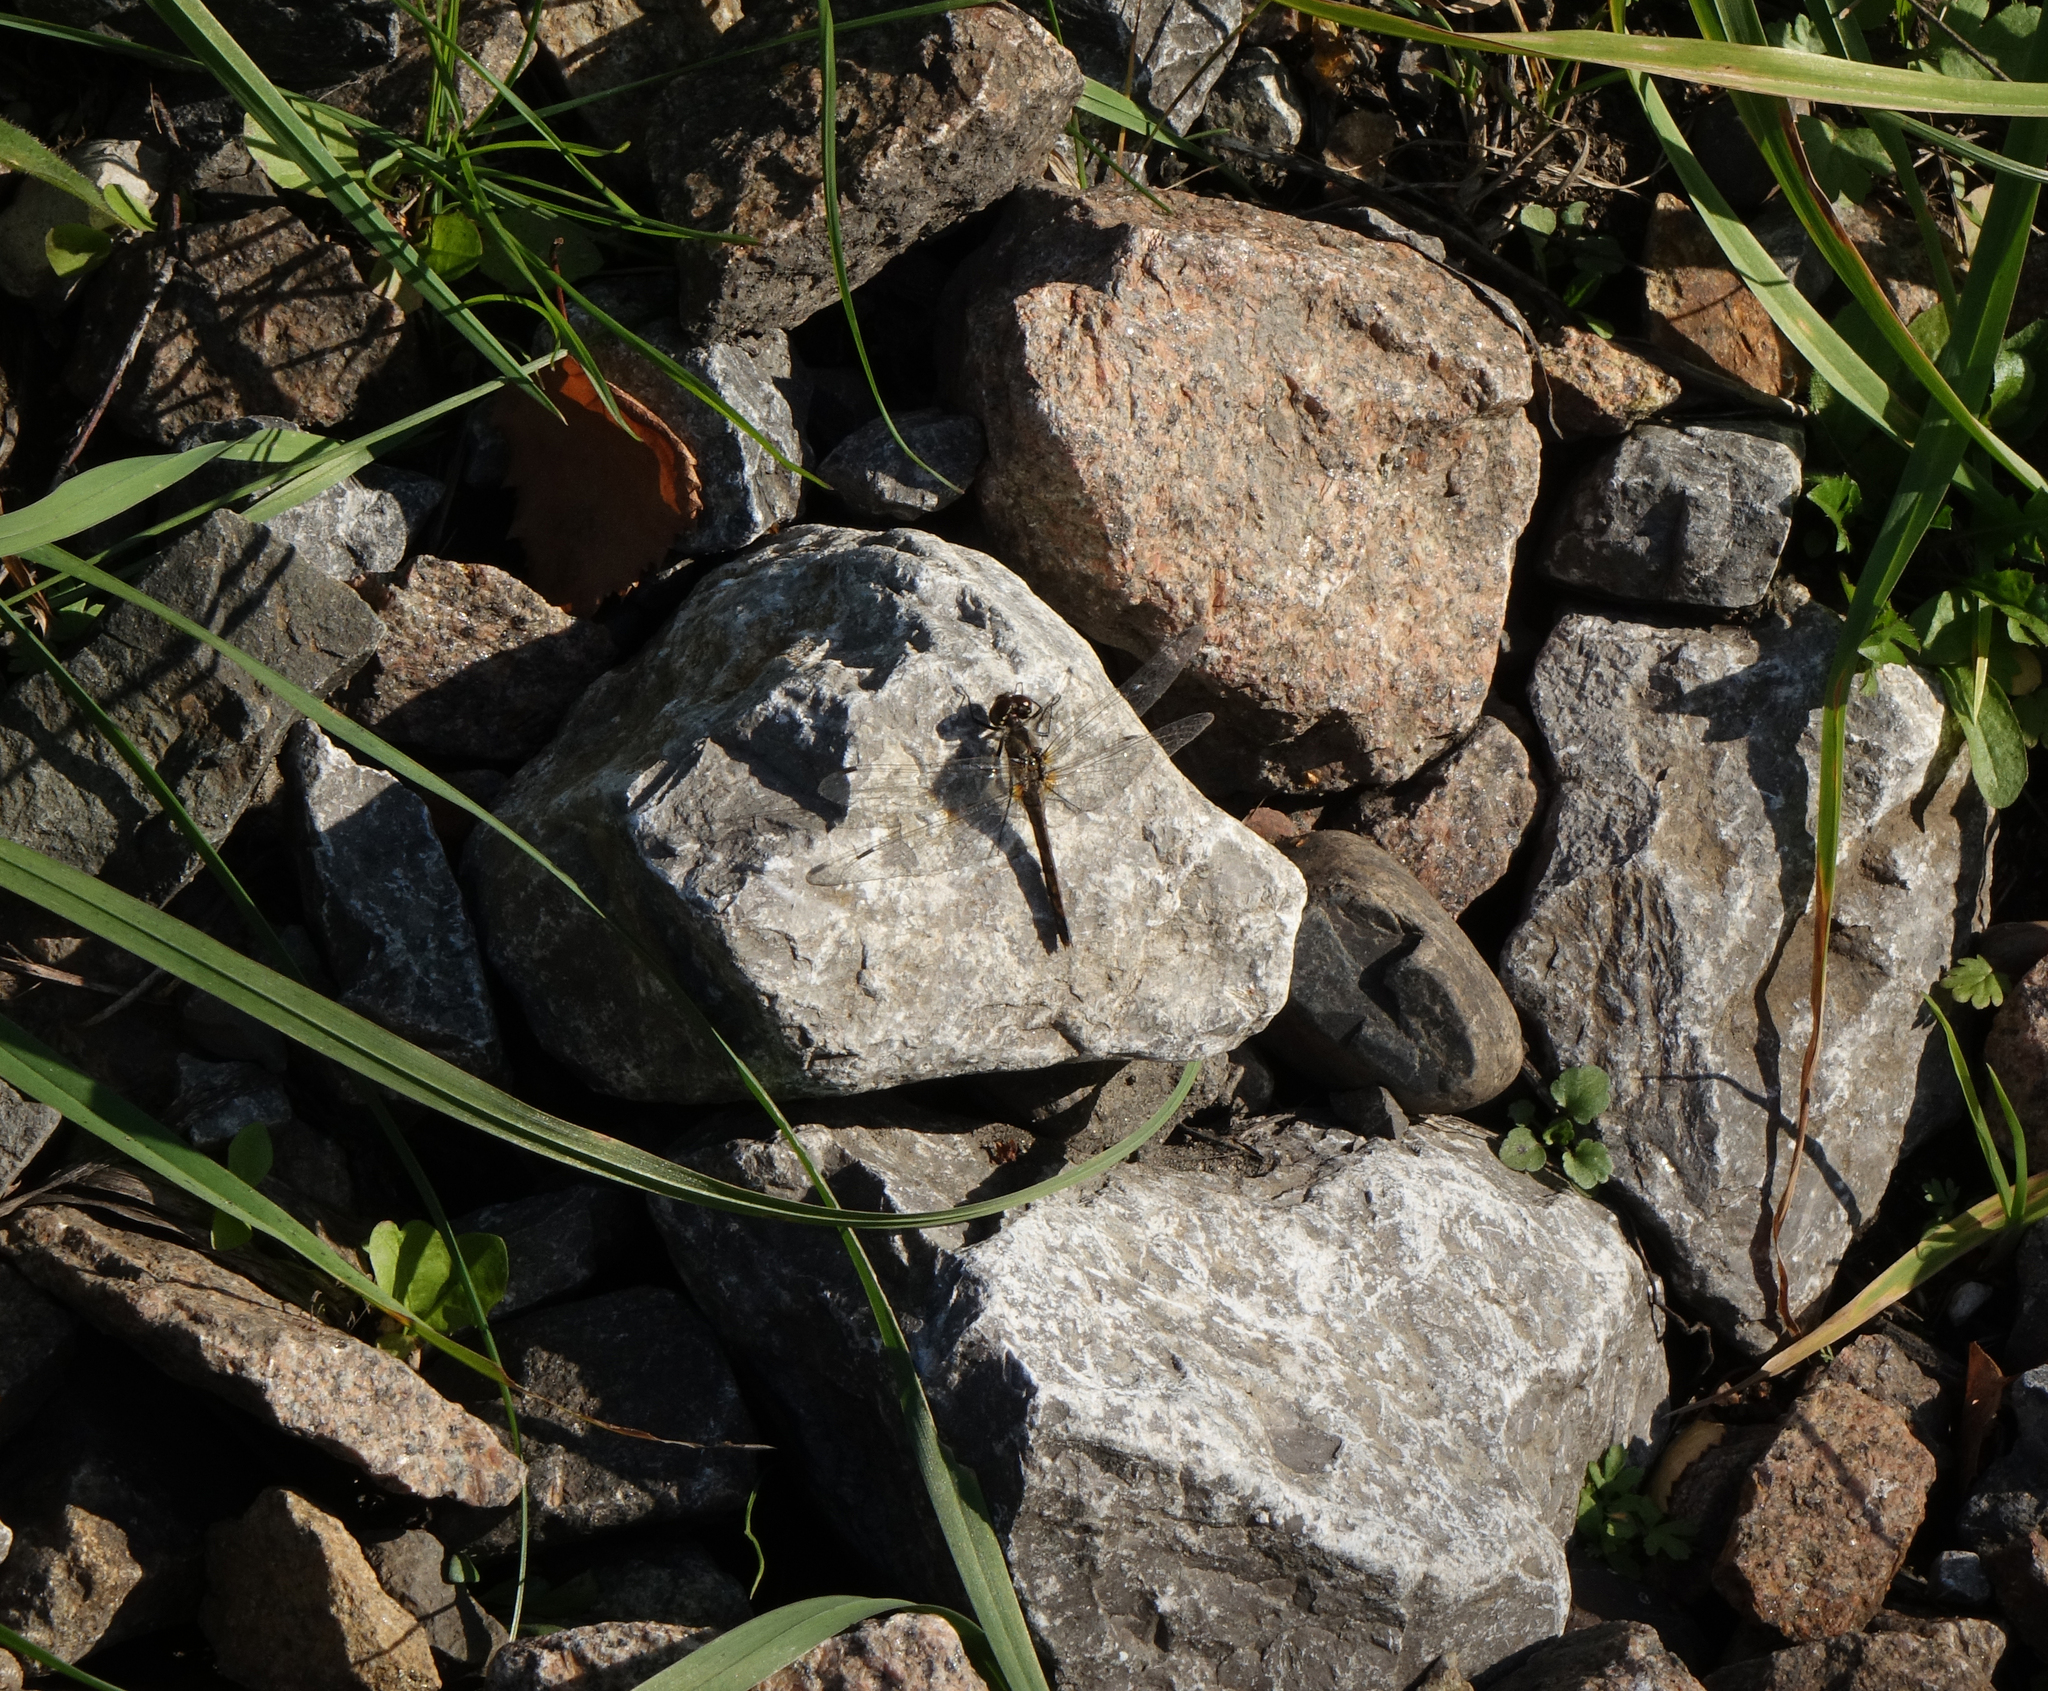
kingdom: Animalia
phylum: Arthropoda
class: Insecta
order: Odonata
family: Libellulidae
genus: Sympetrum
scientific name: Sympetrum danae
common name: Black darter
